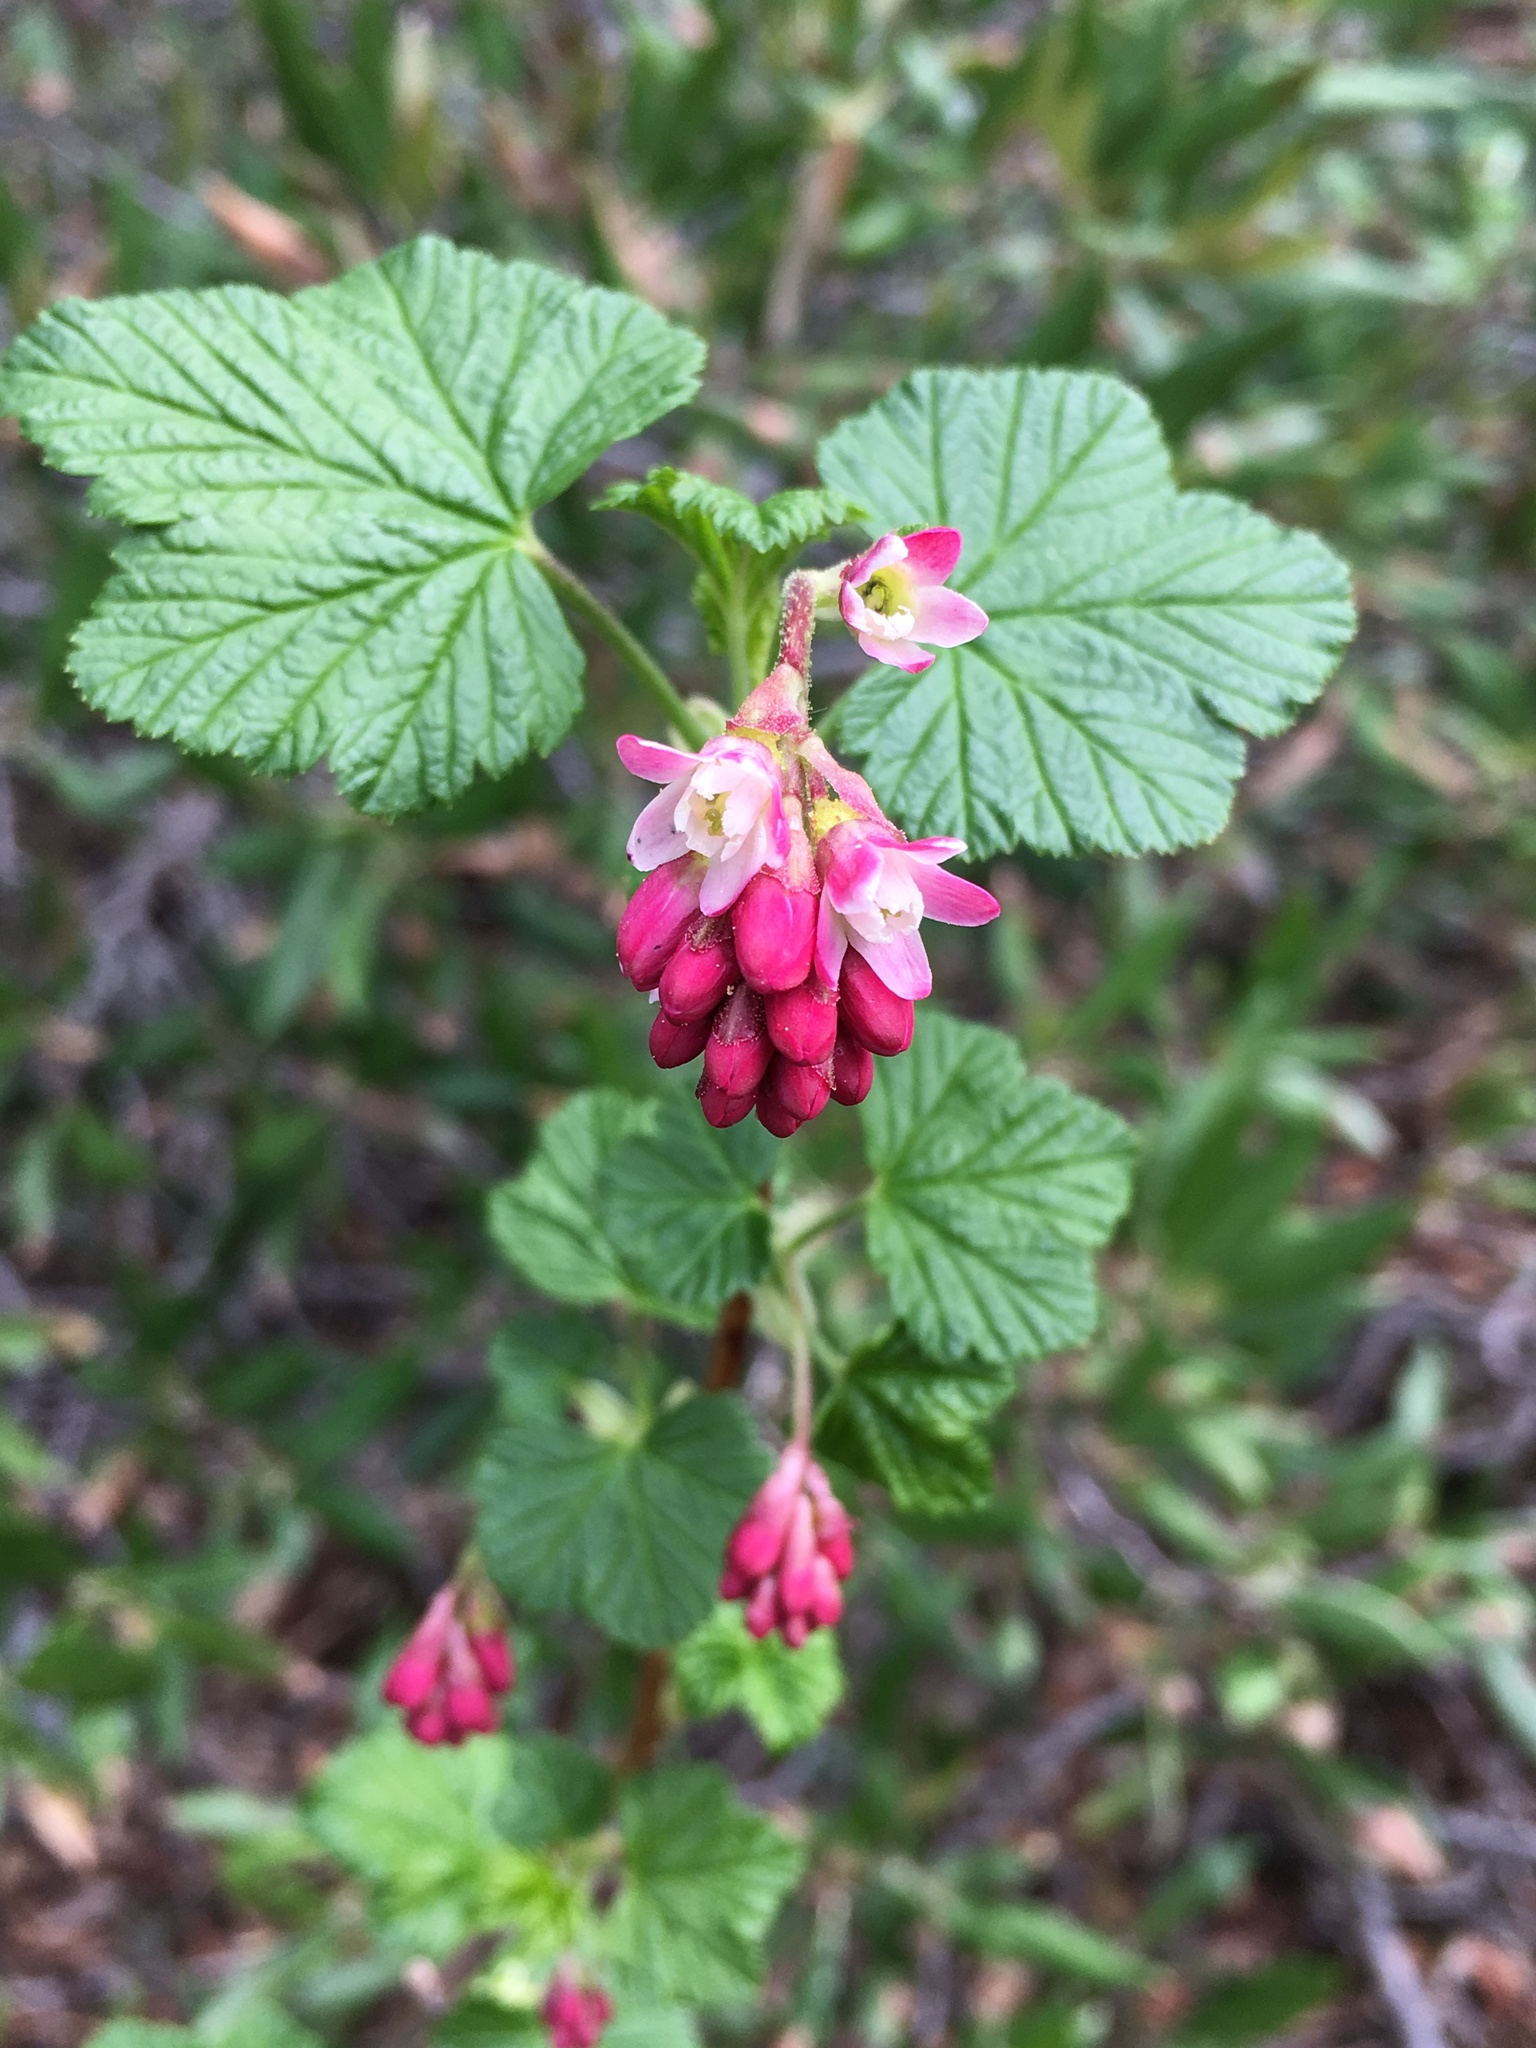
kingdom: Plantae
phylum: Tracheophyta
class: Magnoliopsida
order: Saxifragales
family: Grossulariaceae
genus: Ribes
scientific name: Ribes nevadense
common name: Mountain pink currant
